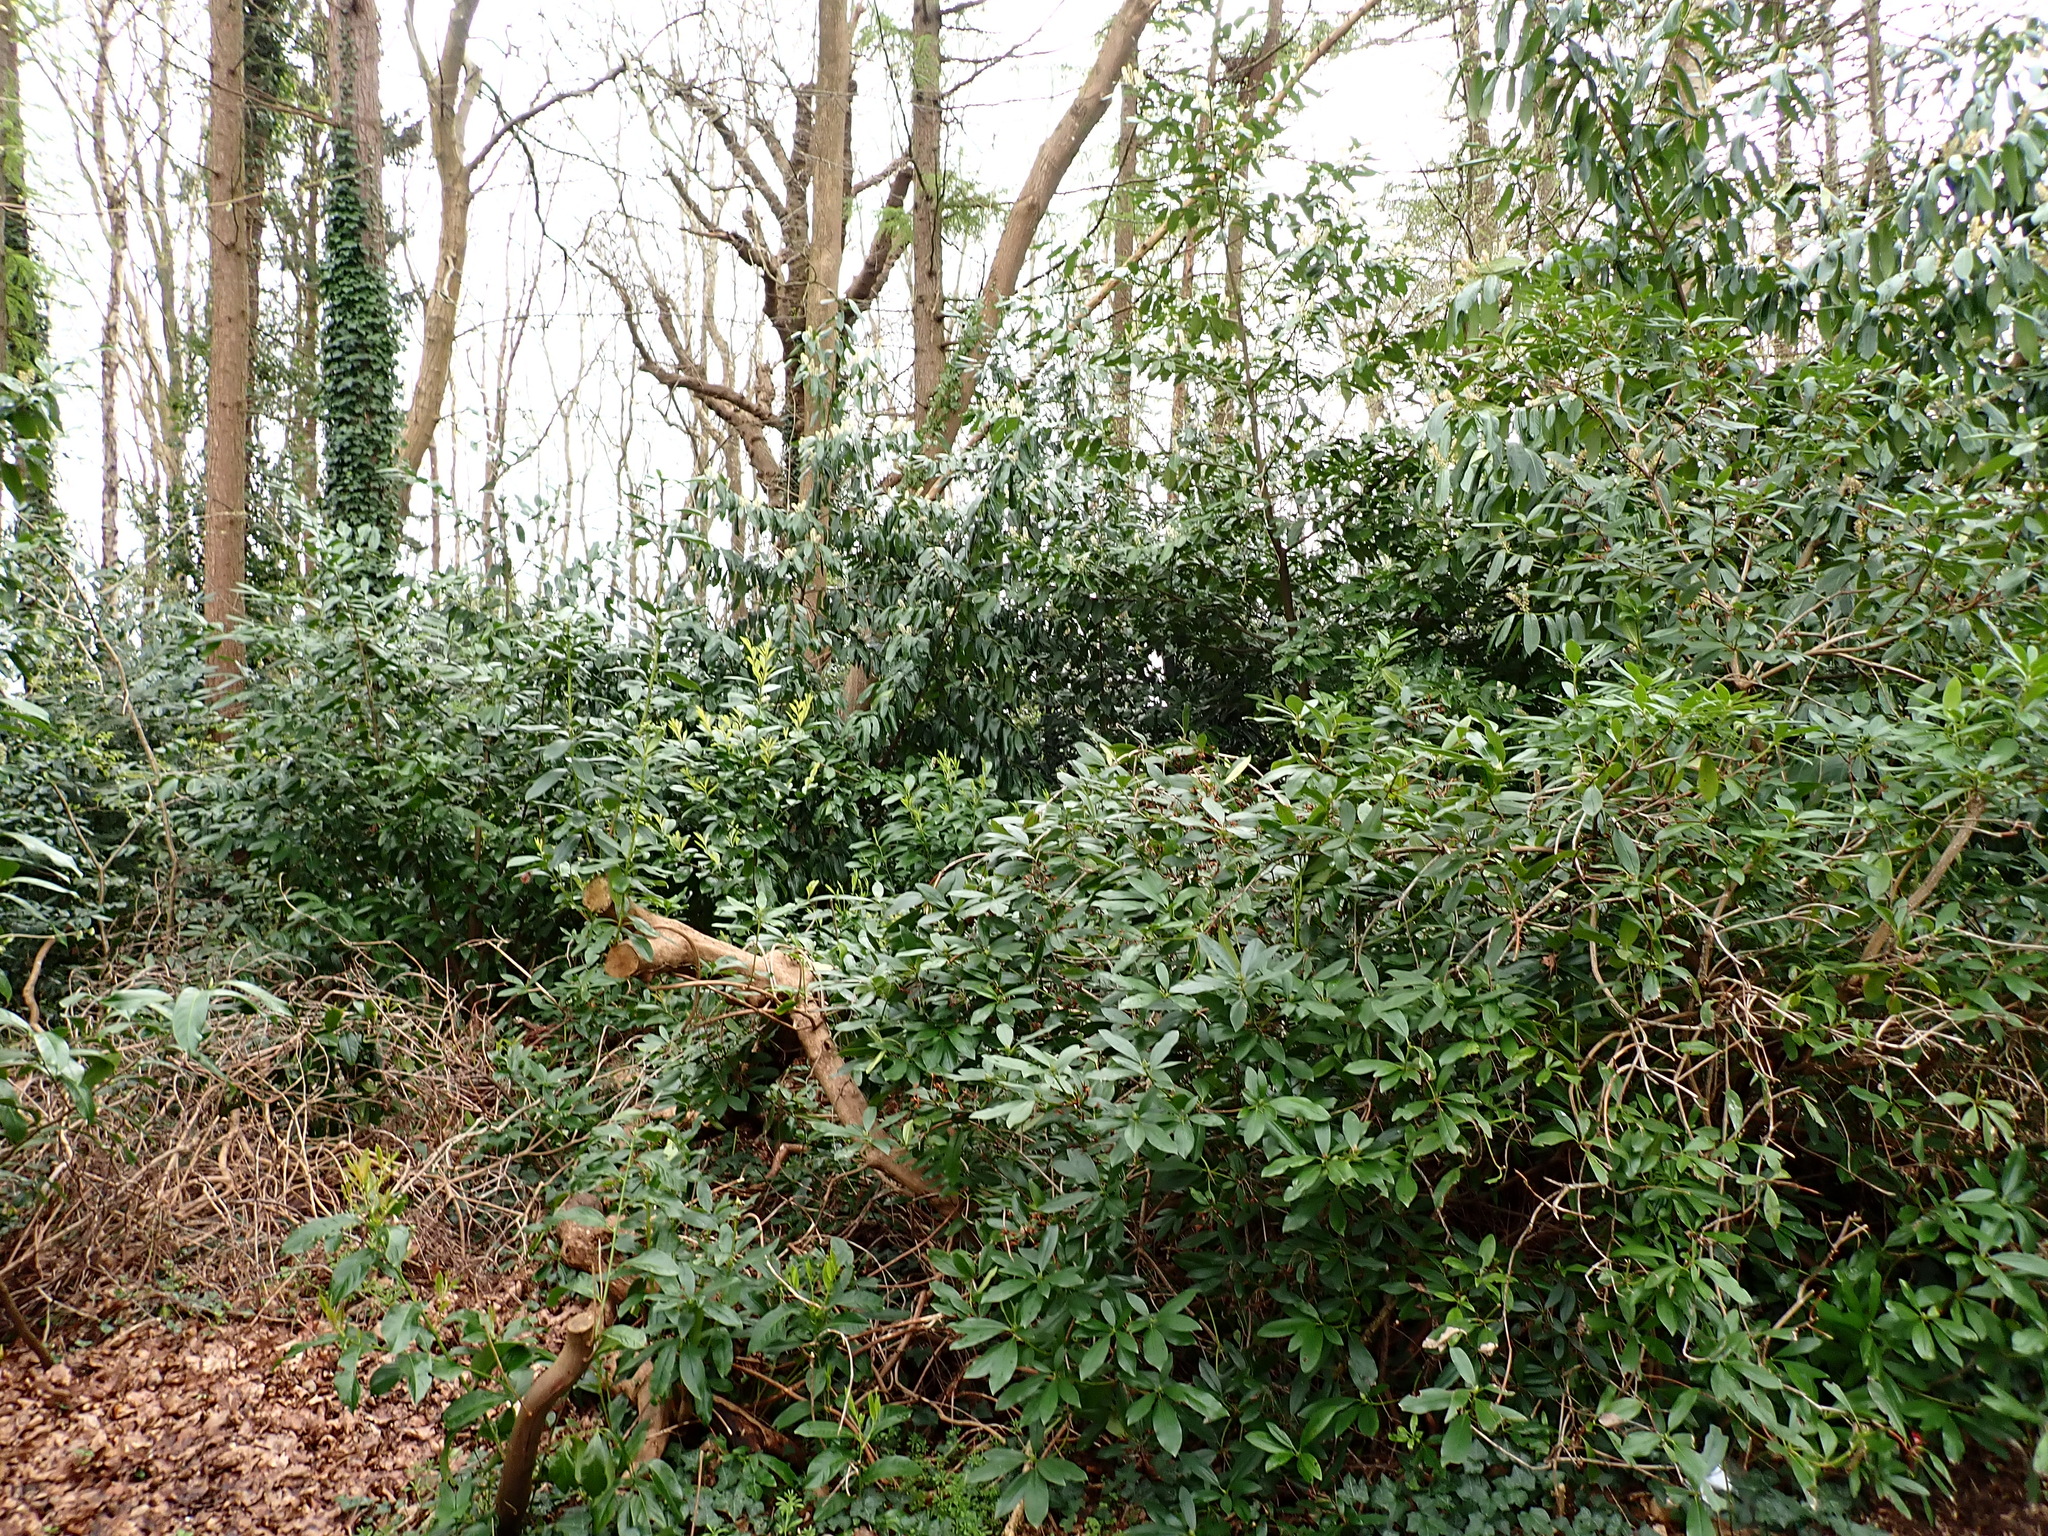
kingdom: Plantae
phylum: Tracheophyta
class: Magnoliopsida
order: Ericales
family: Ericaceae
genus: Rhododendron
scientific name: Rhododendron ponticum
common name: Rhododendron
